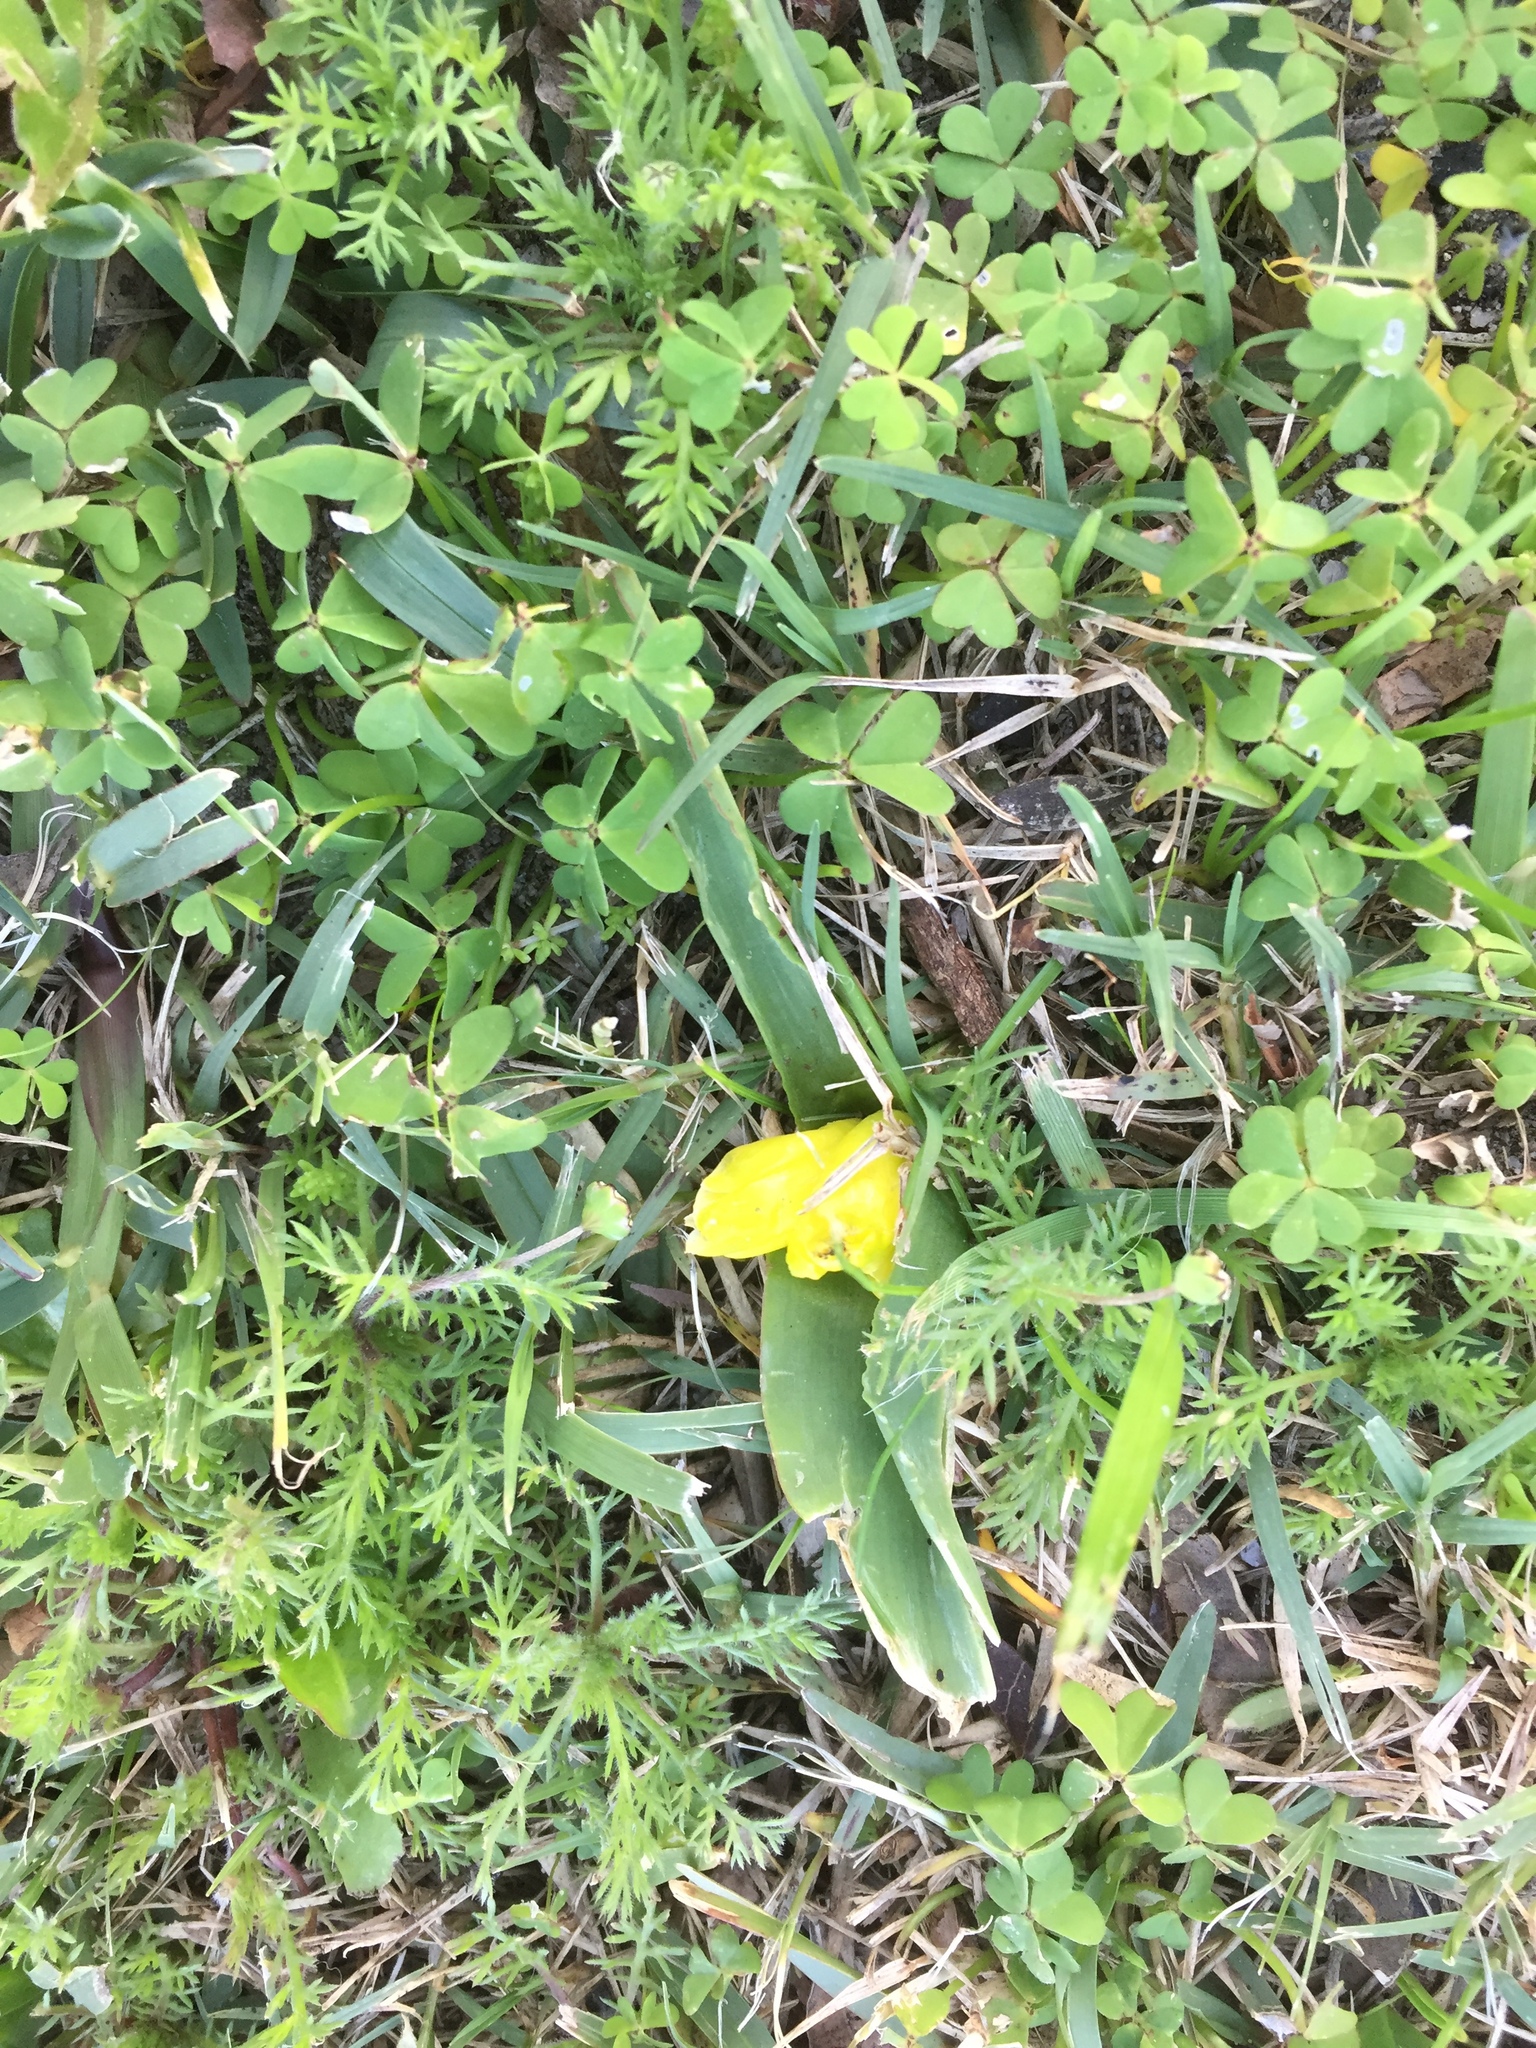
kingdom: Plantae
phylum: Tracheophyta
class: Liliopsida
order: Asparagales
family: Asparagaceae
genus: Lachenalia
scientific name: Lachenalia reflexa
